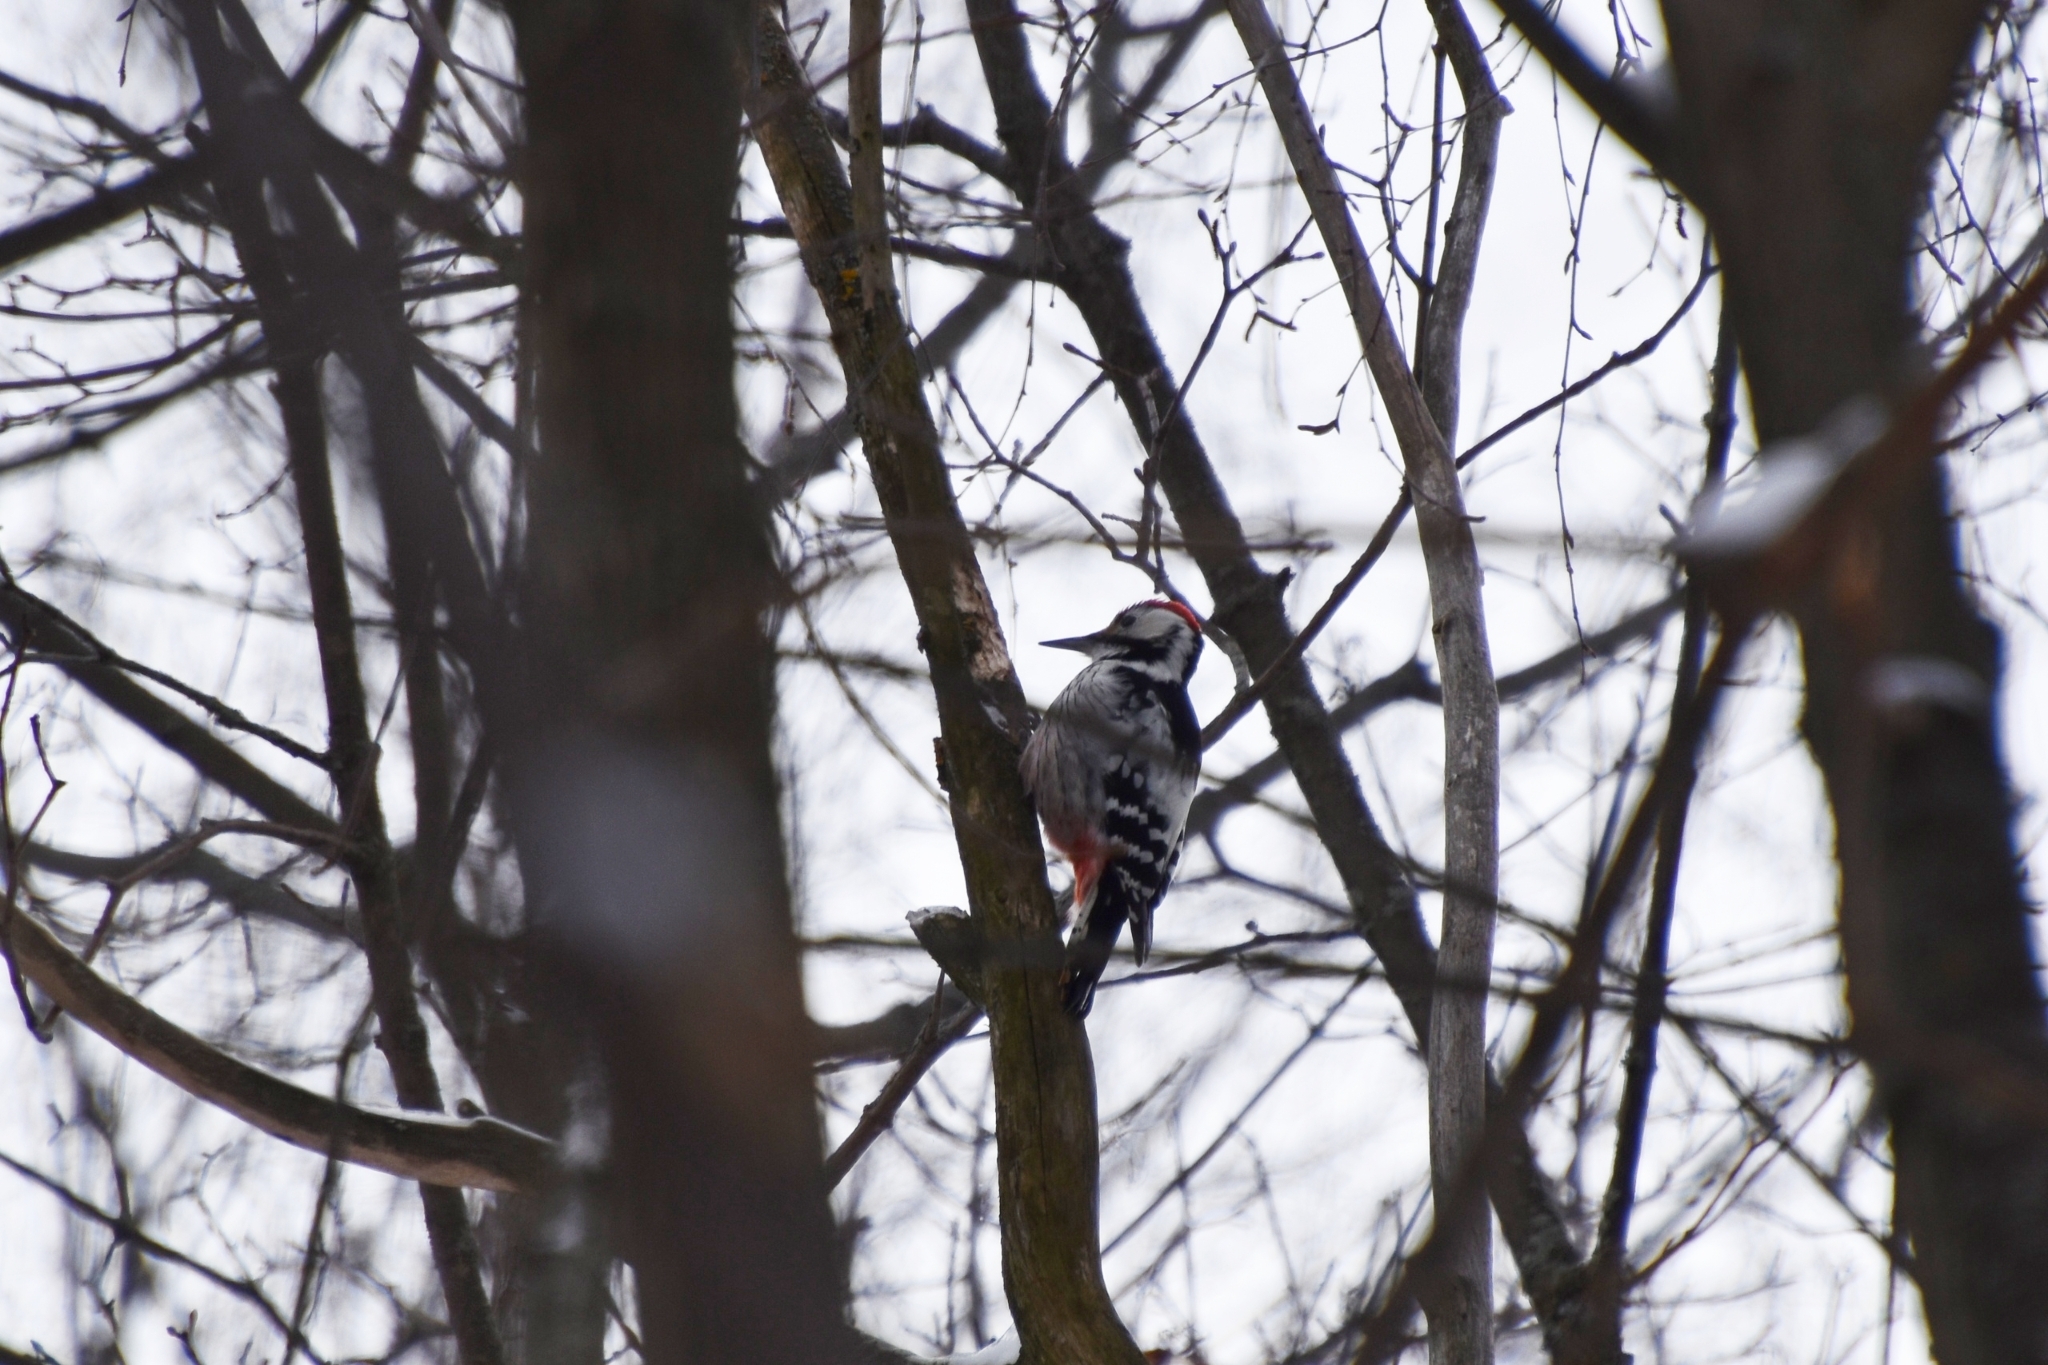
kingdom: Animalia
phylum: Chordata
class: Aves
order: Piciformes
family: Picidae
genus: Dendrocopos
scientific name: Dendrocopos leucotos
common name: White-backed woodpecker
